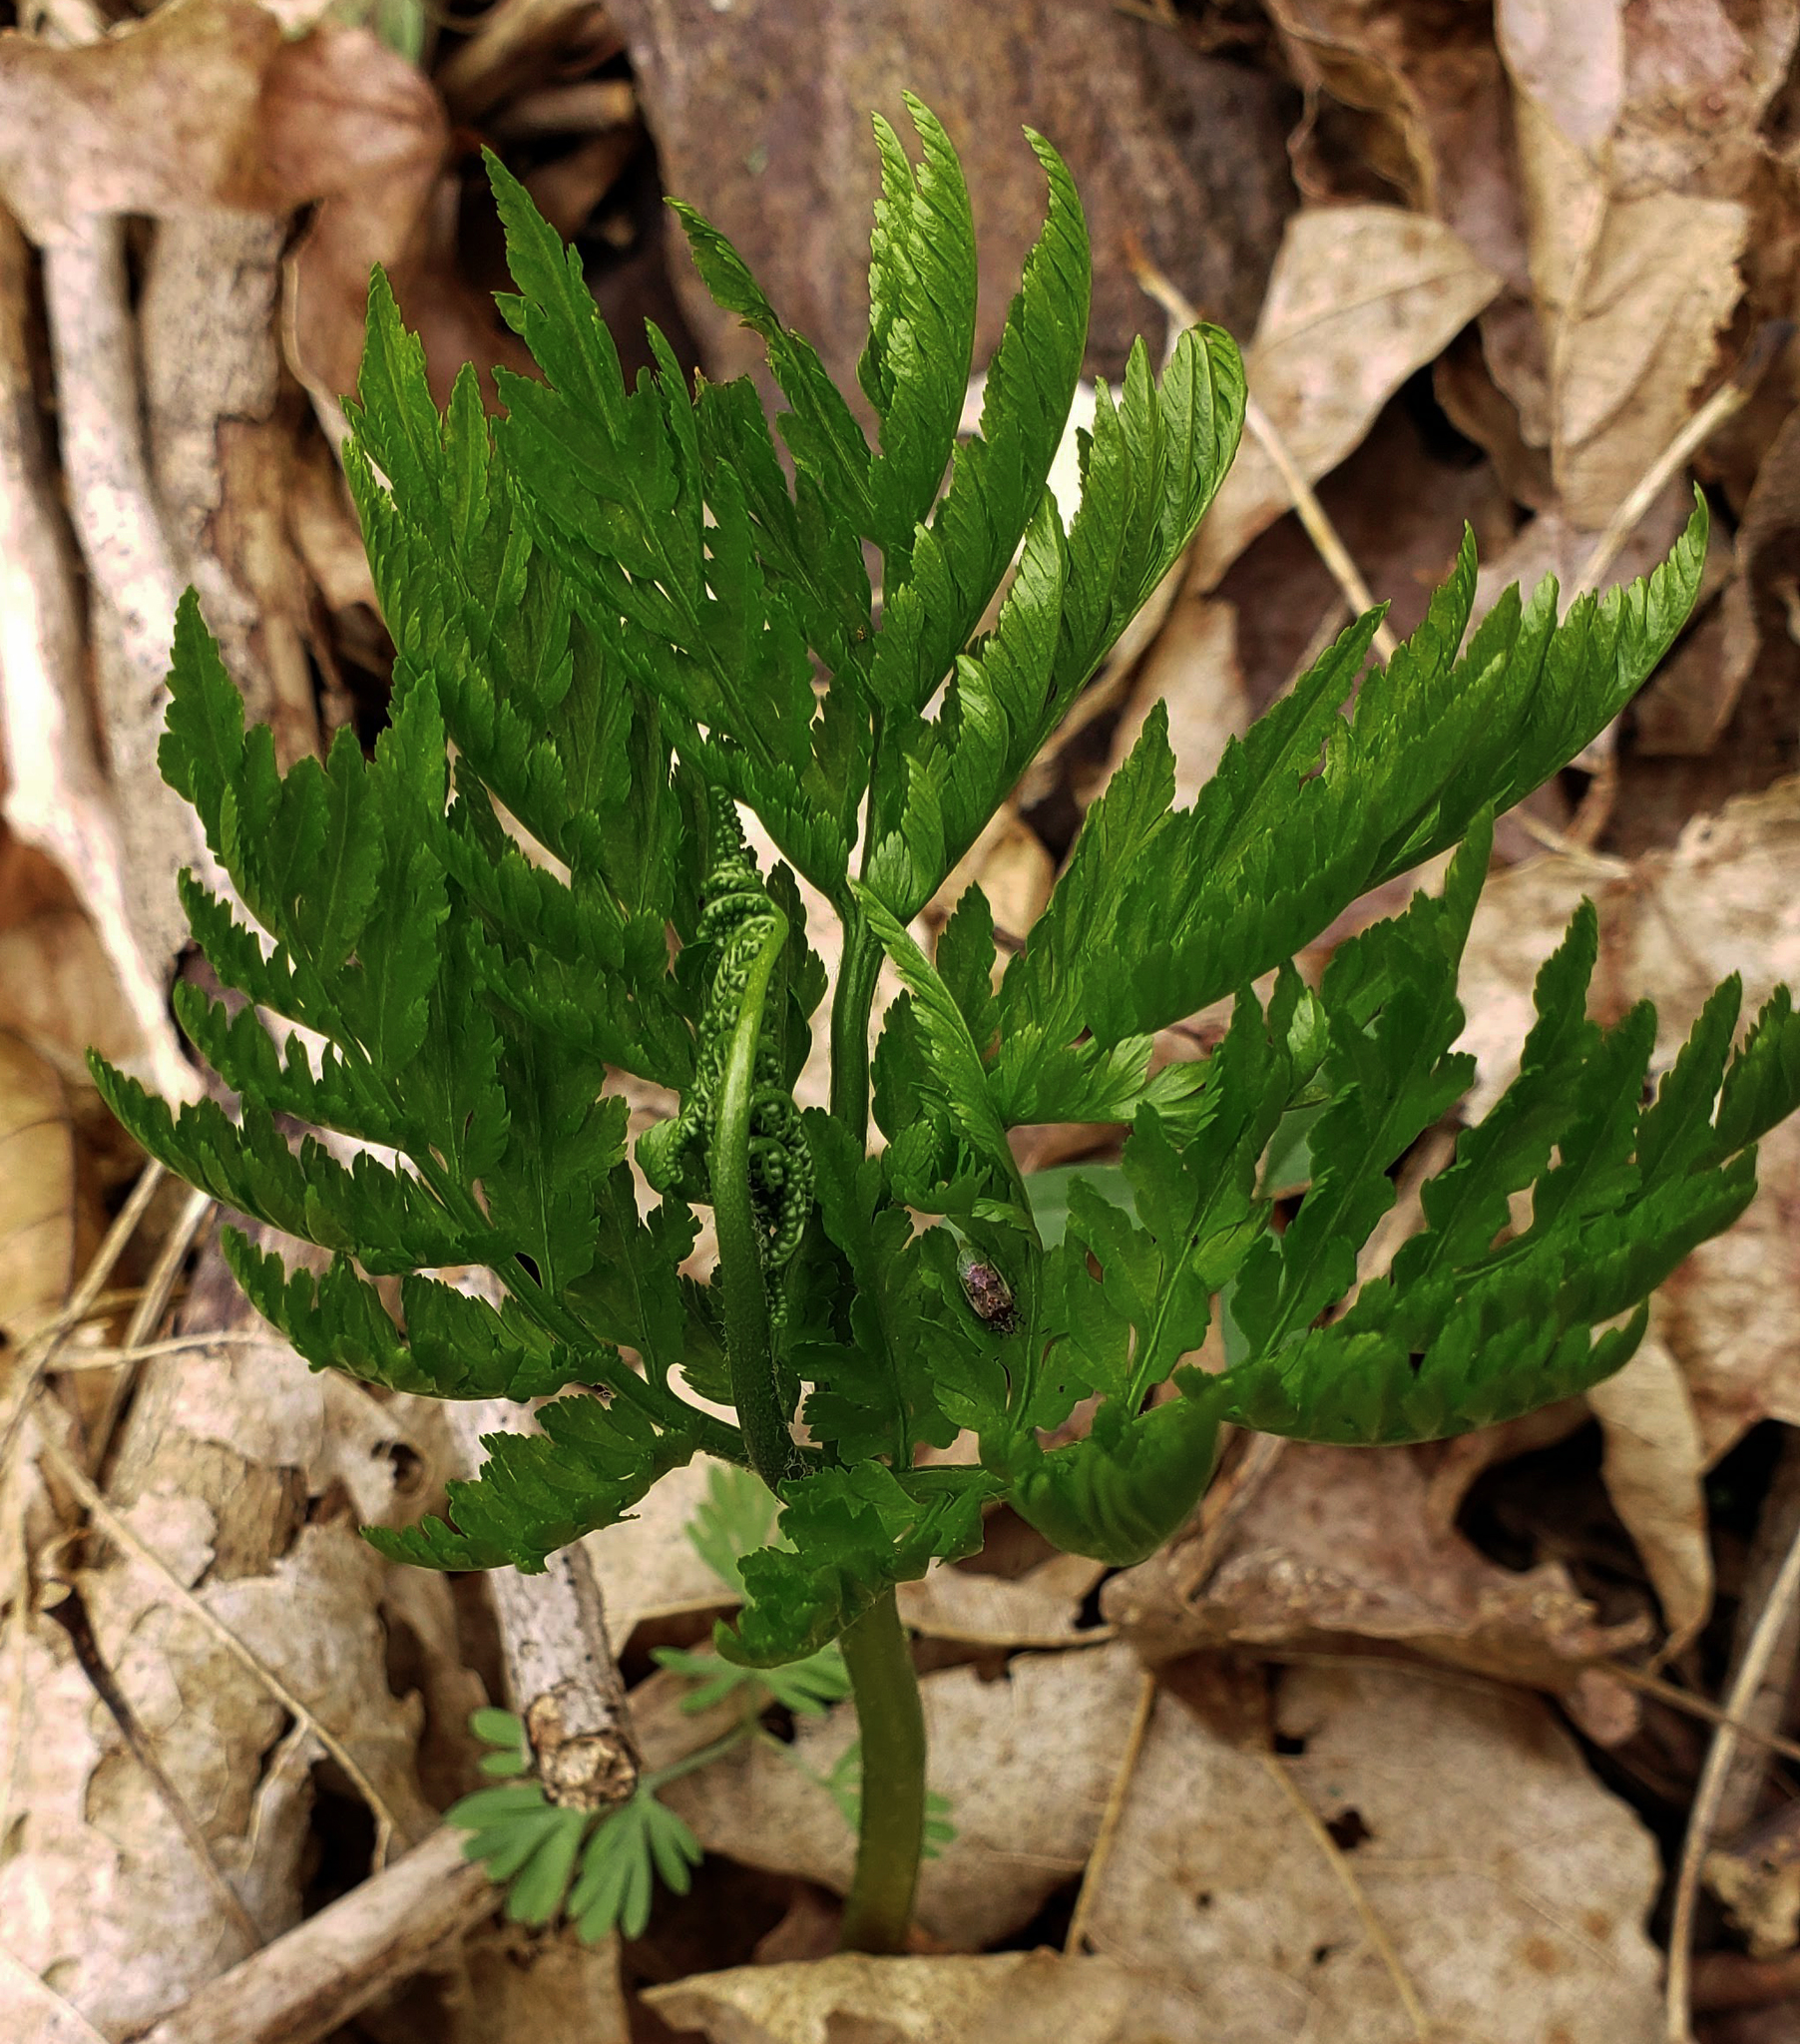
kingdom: Plantae
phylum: Tracheophyta
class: Polypodiopsida
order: Ophioglossales
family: Ophioglossaceae
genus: Botrypus
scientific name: Botrypus virginianus
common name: Common grapefern
